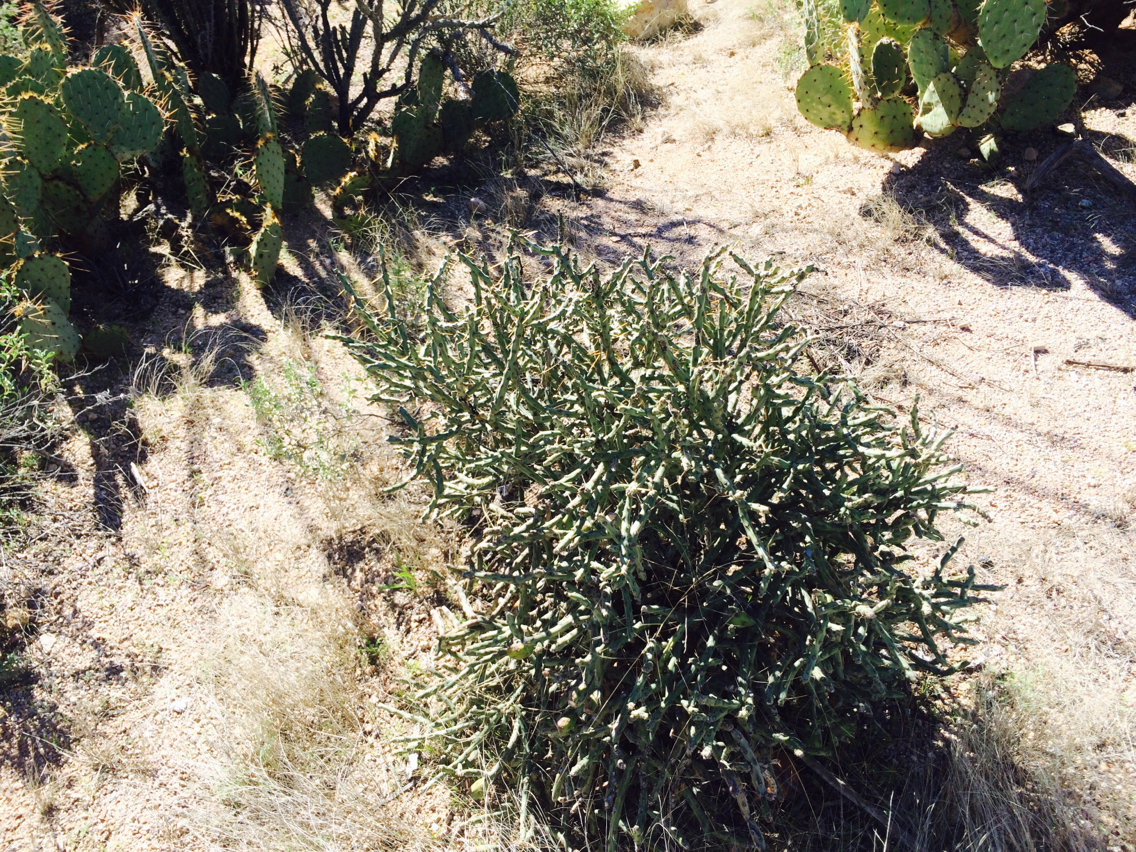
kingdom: Plantae
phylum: Tracheophyta
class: Magnoliopsida
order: Caryophyllales
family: Cactaceae
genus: Cylindropuntia
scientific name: Cylindropuntia arbuscula
